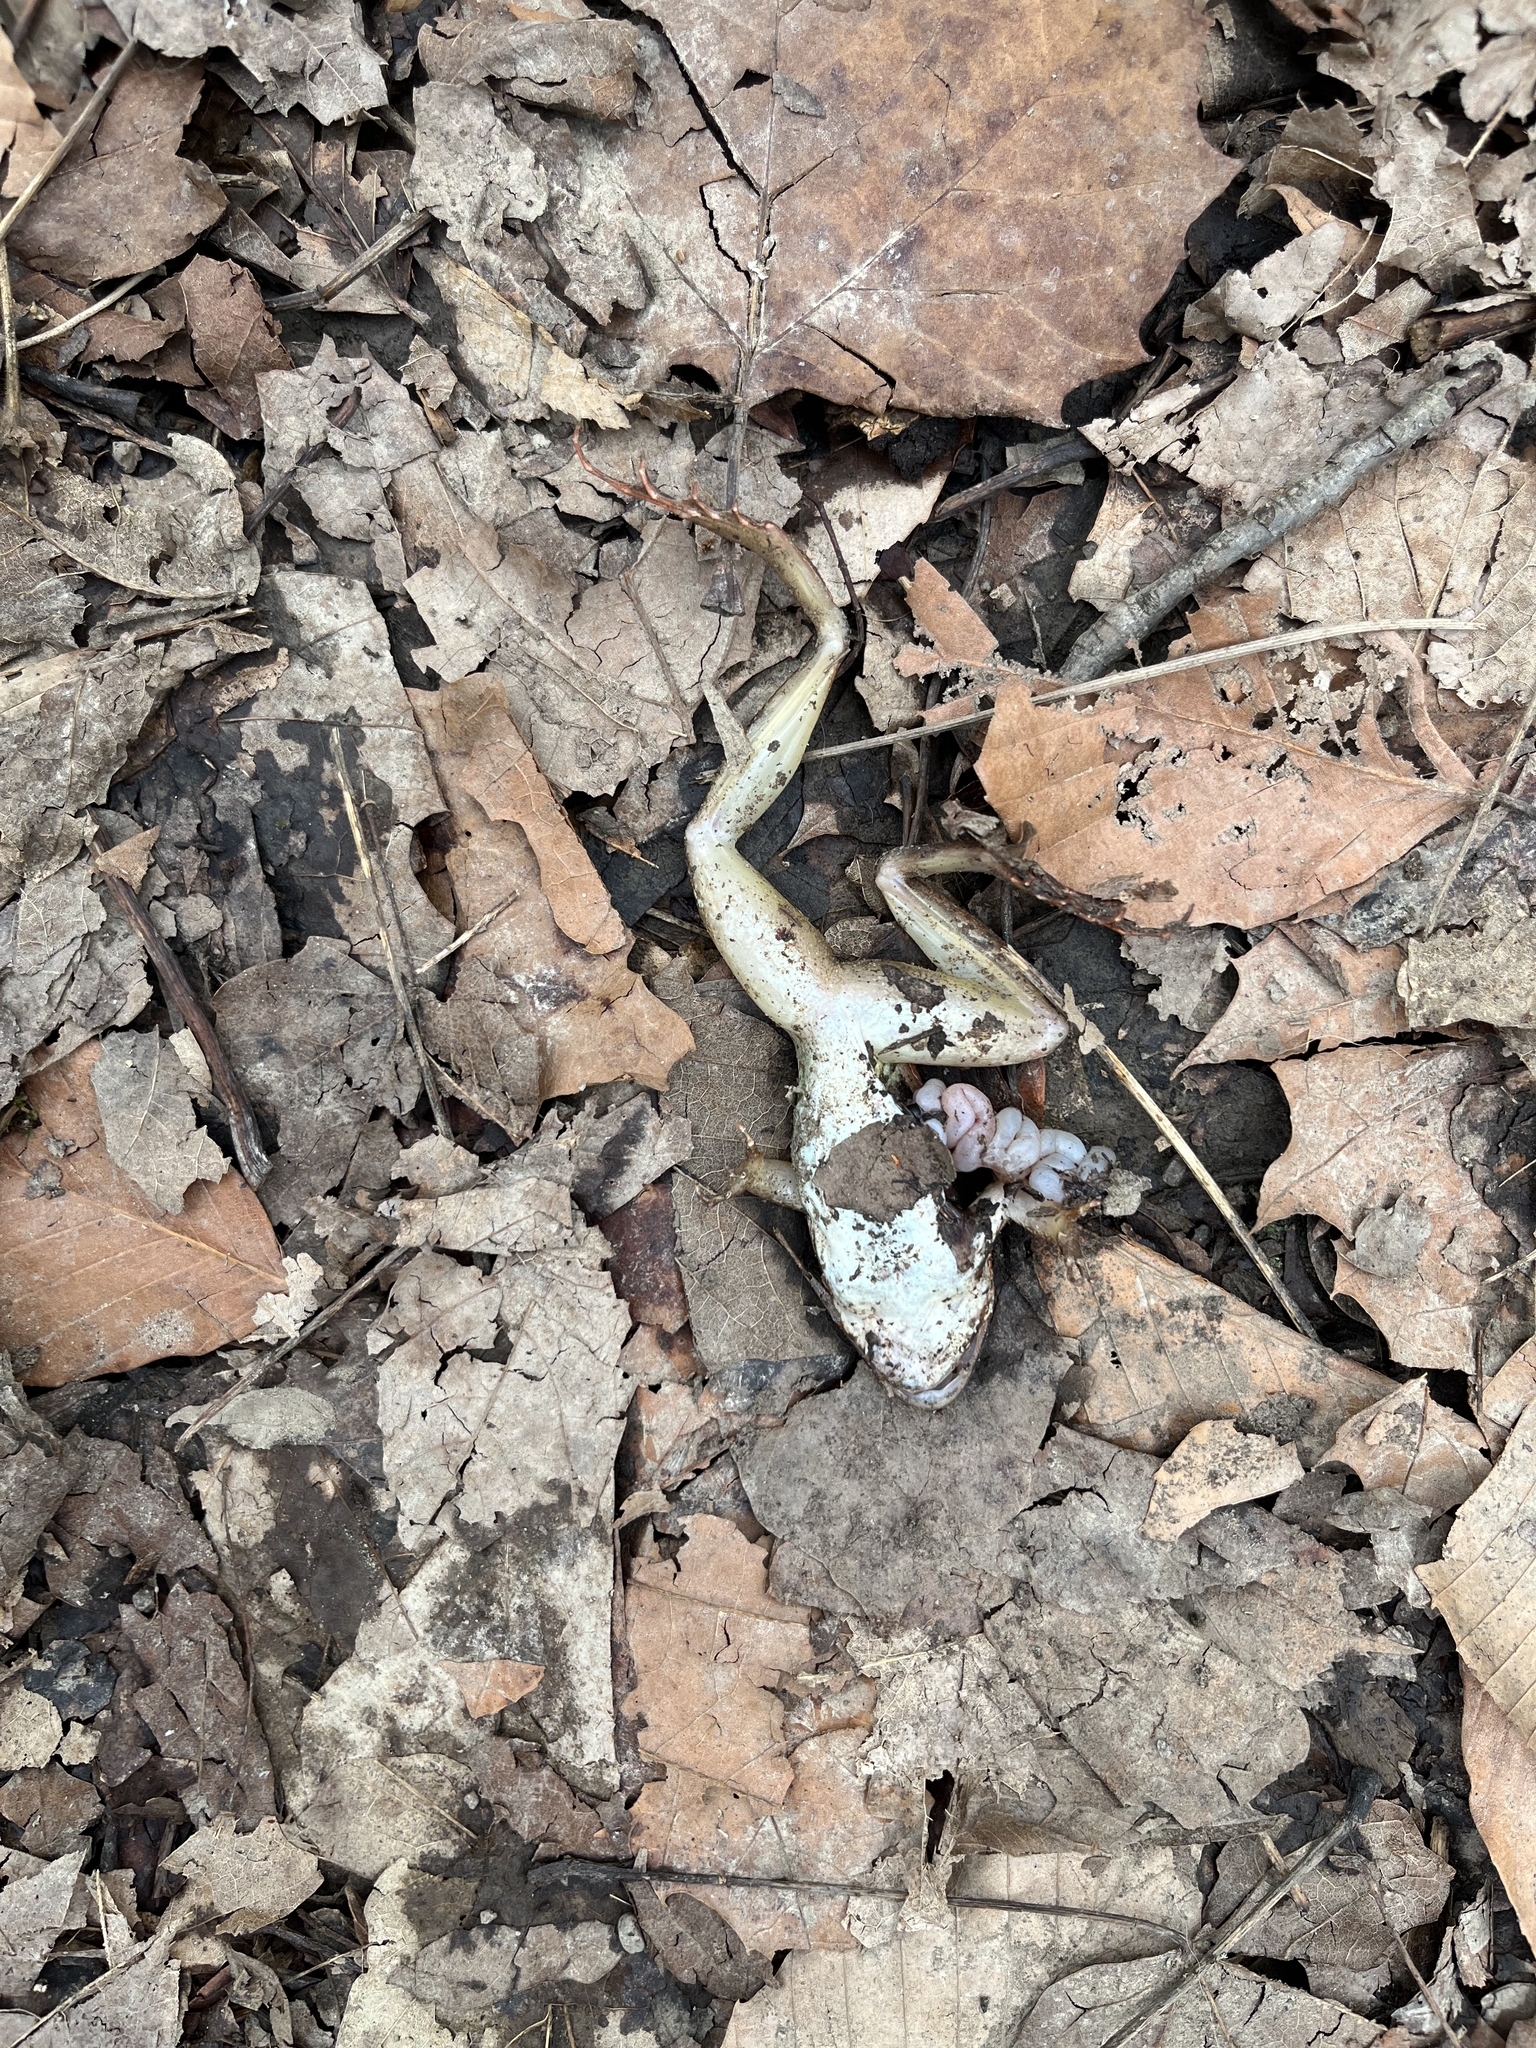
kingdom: Animalia
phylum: Chordata
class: Amphibia
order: Anura
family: Ranidae
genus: Lithobates
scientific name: Lithobates sylvaticus
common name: Wood frog
